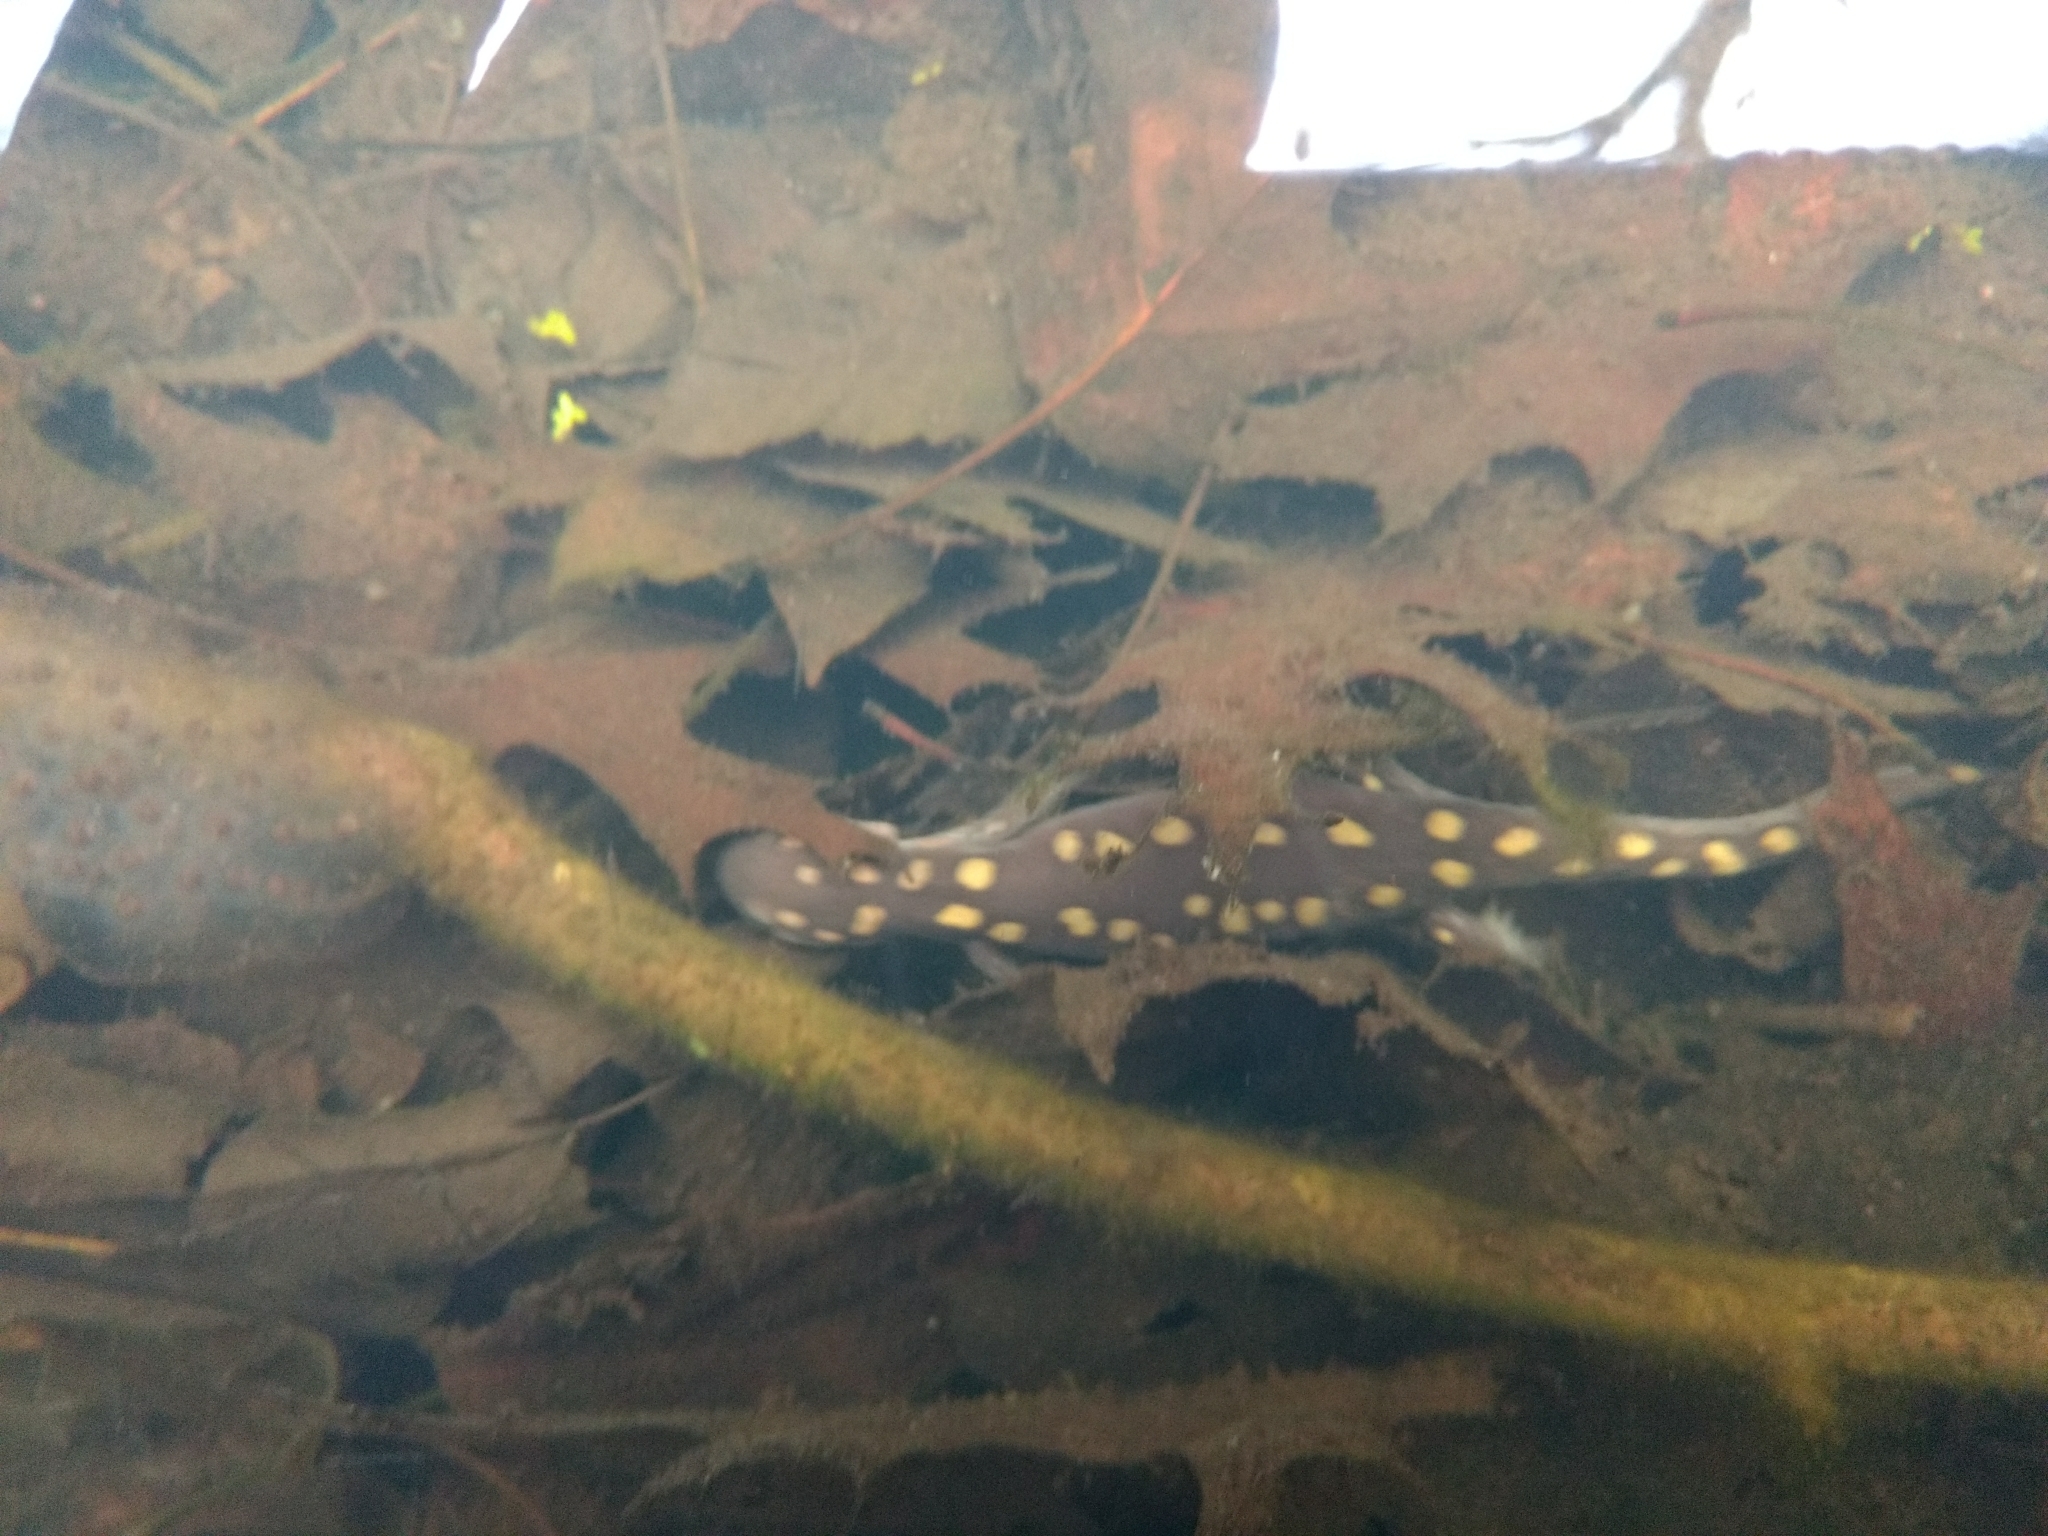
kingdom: Animalia
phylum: Chordata
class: Amphibia
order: Caudata
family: Ambystomatidae
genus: Ambystoma
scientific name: Ambystoma maculatum
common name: Spotted salamander
